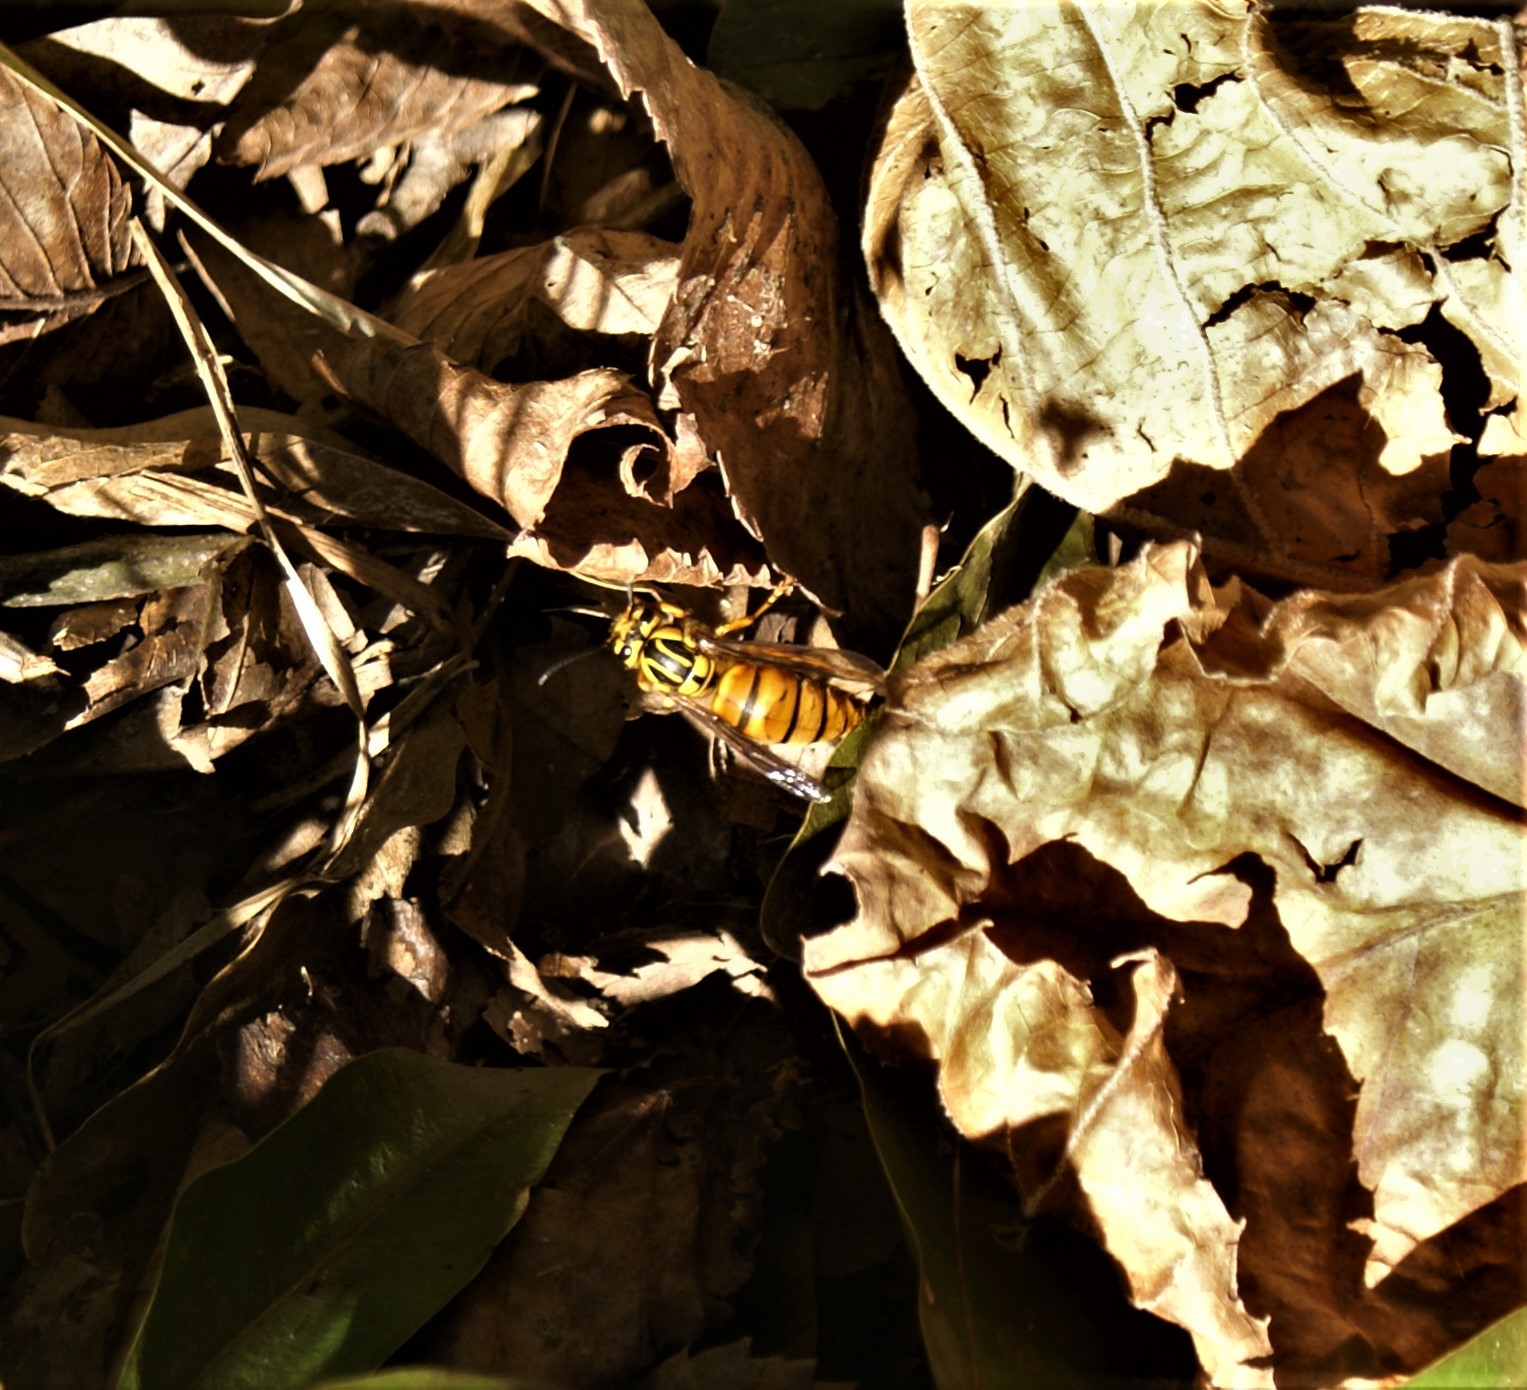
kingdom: Animalia
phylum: Arthropoda
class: Insecta
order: Hymenoptera
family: Vespidae
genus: Vespula
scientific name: Vespula squamosa
